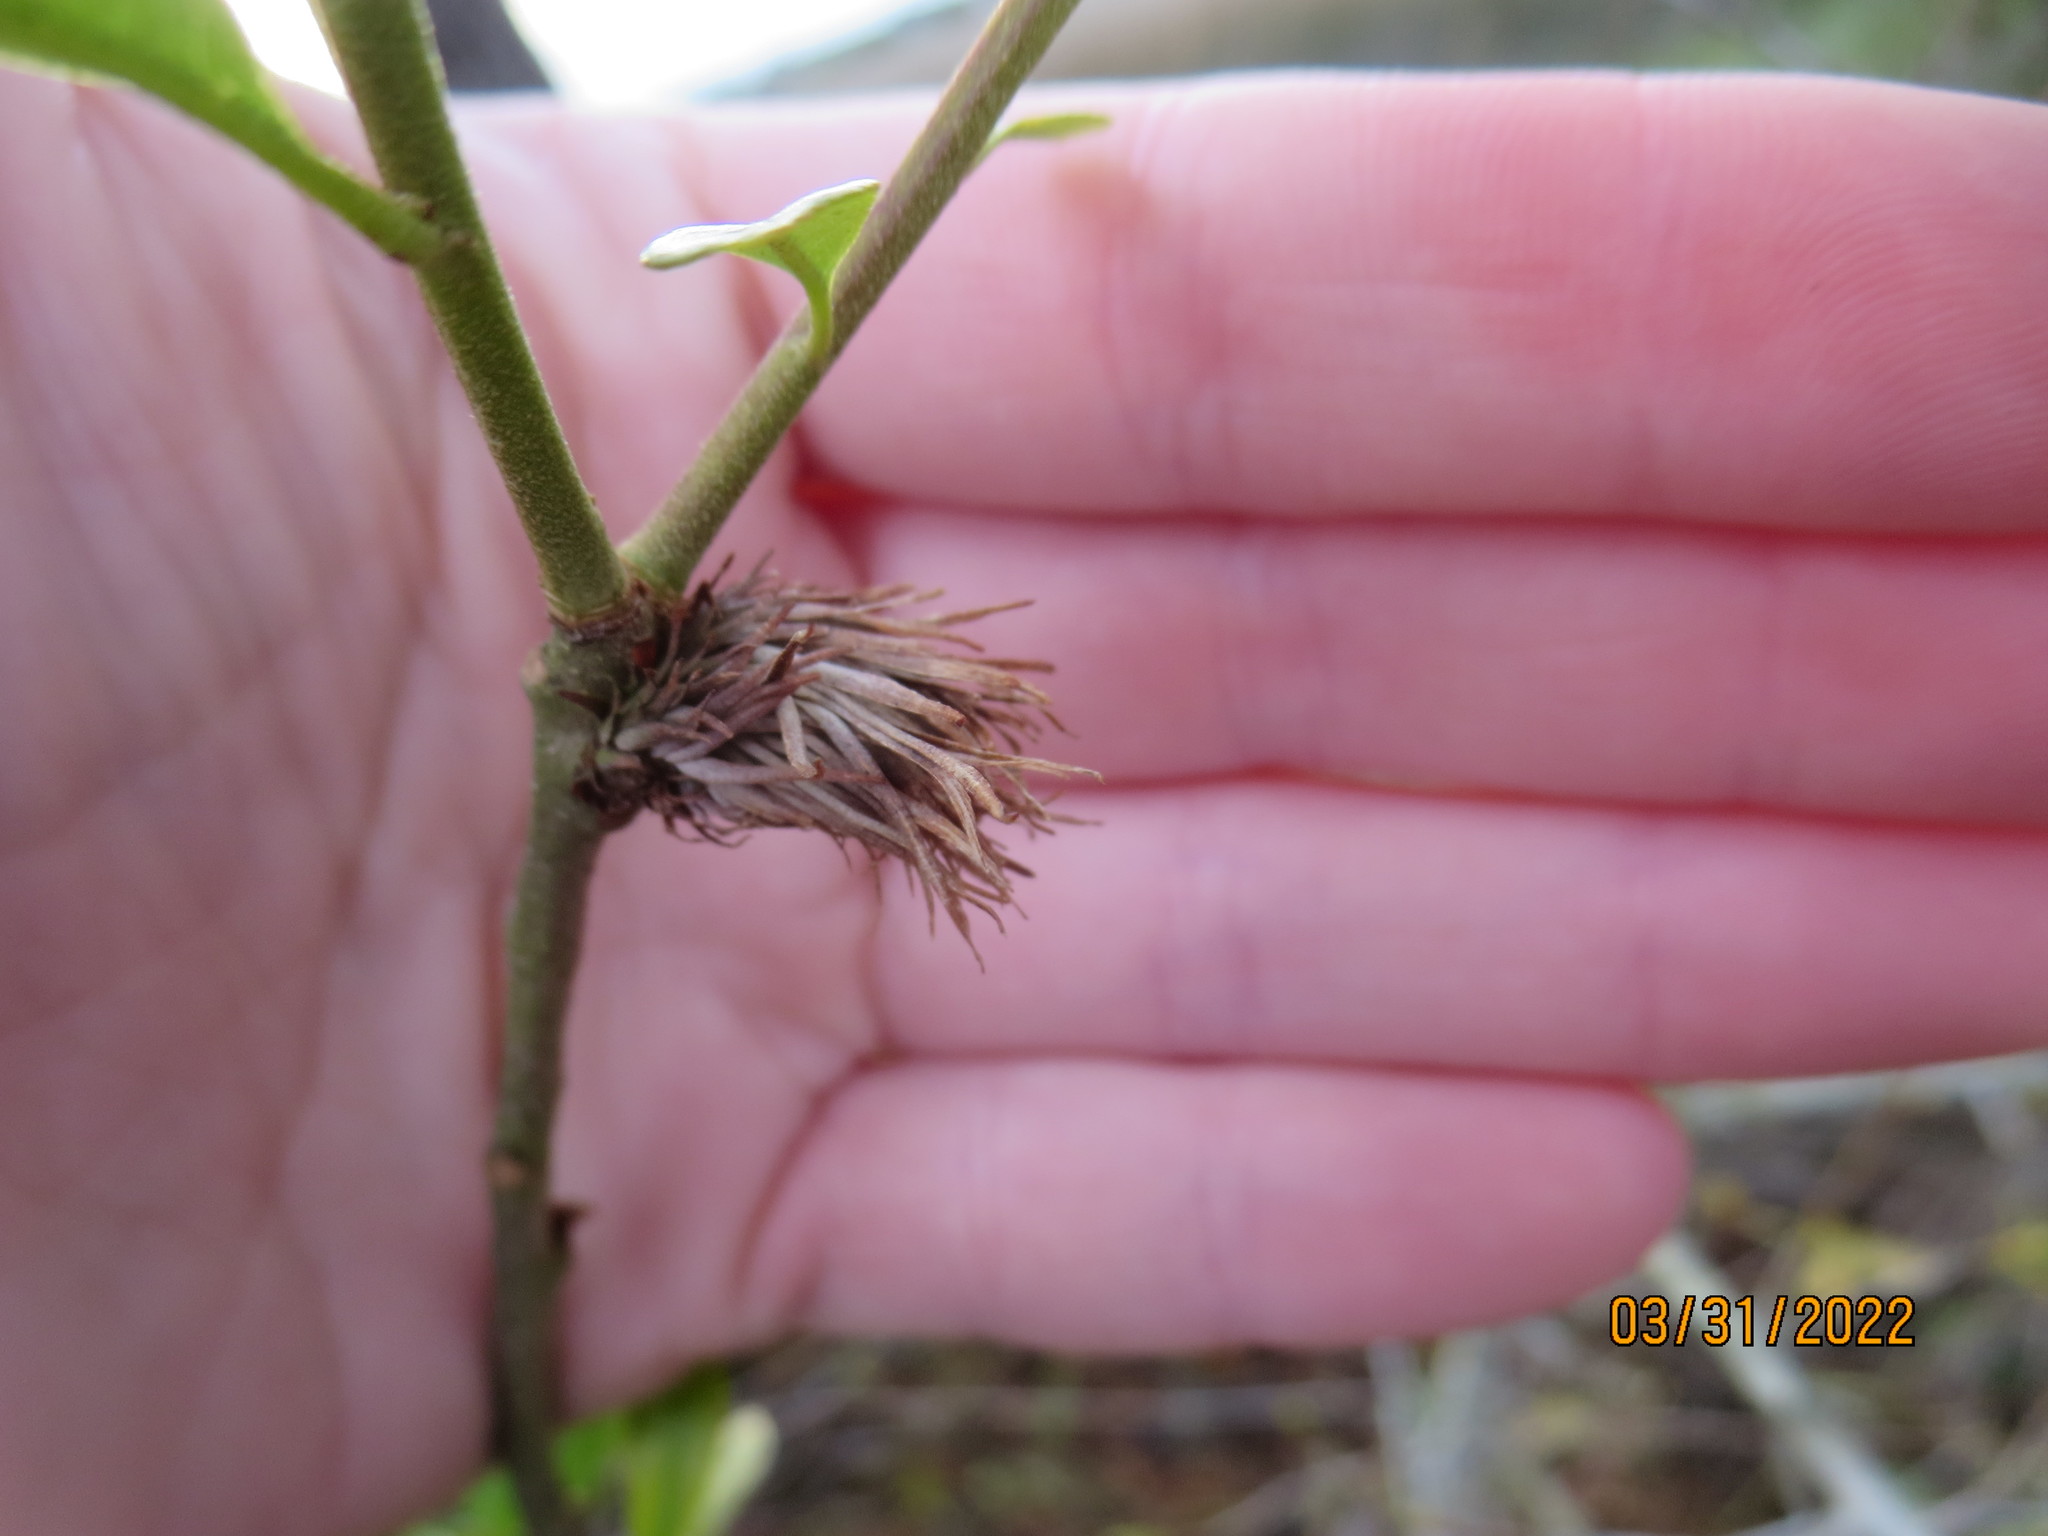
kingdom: Animalia
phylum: Arthropoda
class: Insecta
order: Hymenoptera
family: Cynipidae
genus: Andricus
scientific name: Andricus quercusfoliatus
